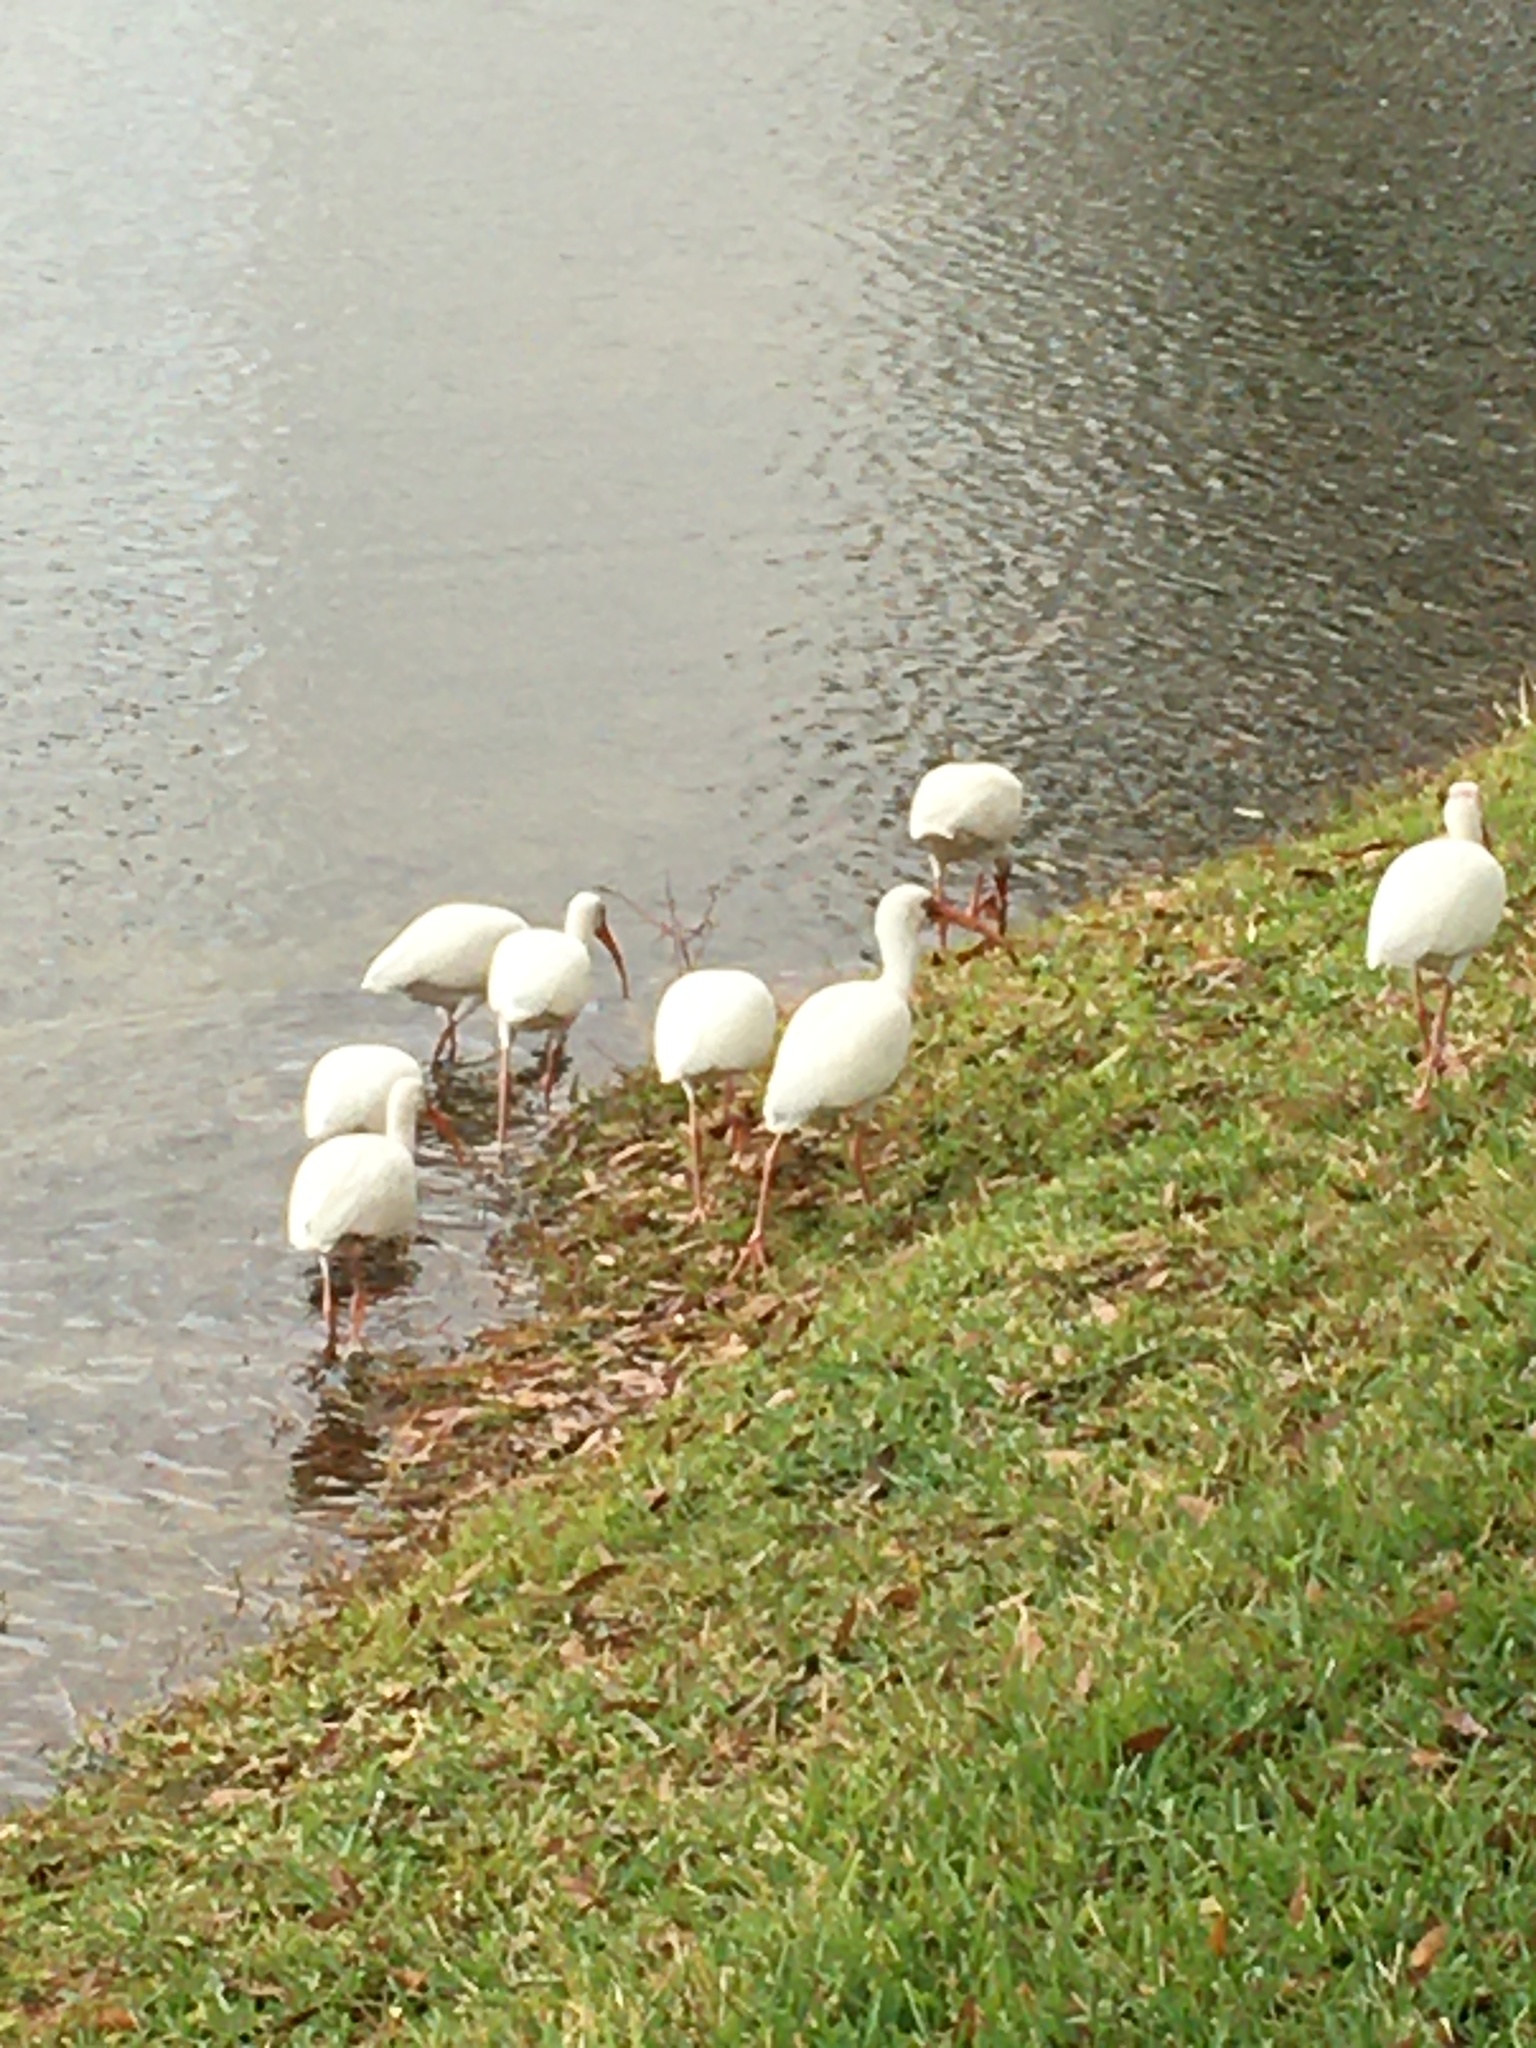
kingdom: Animalia
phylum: Chordata
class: Aves
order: Pelecaniformes
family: Threskiornithidae
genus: Eudocimus
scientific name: Eudocimus albus
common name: White ibis
